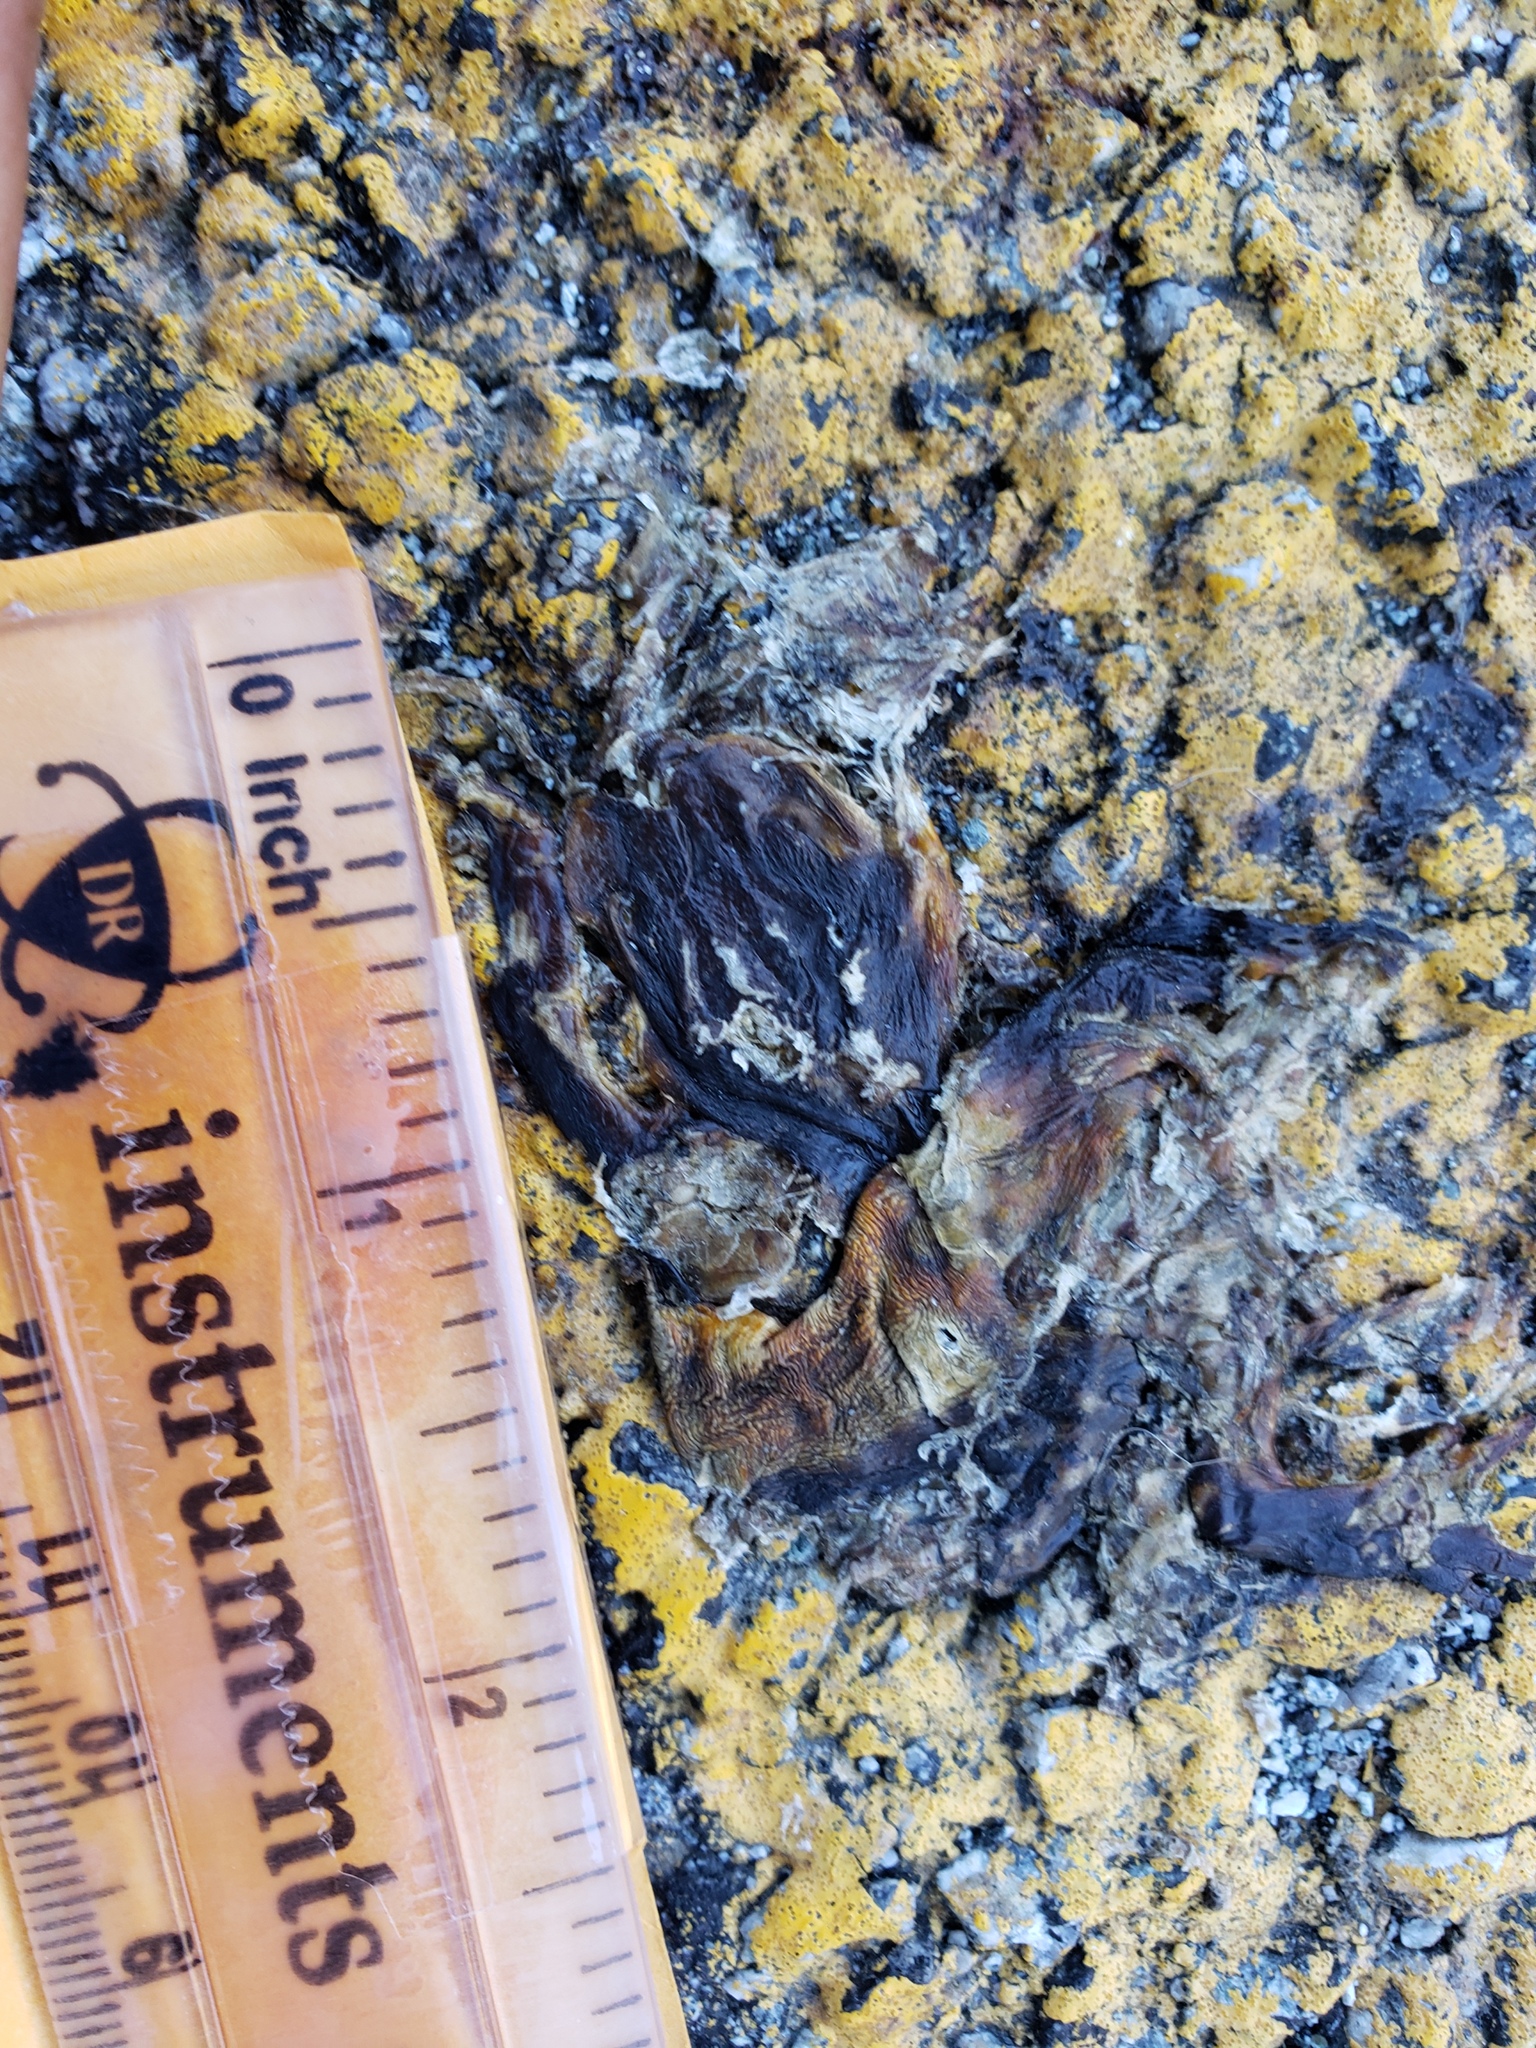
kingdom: Animalia
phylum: Chordata
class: Amphibia
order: Caudata
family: Salamandridae
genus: Taricha
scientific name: Taricha
